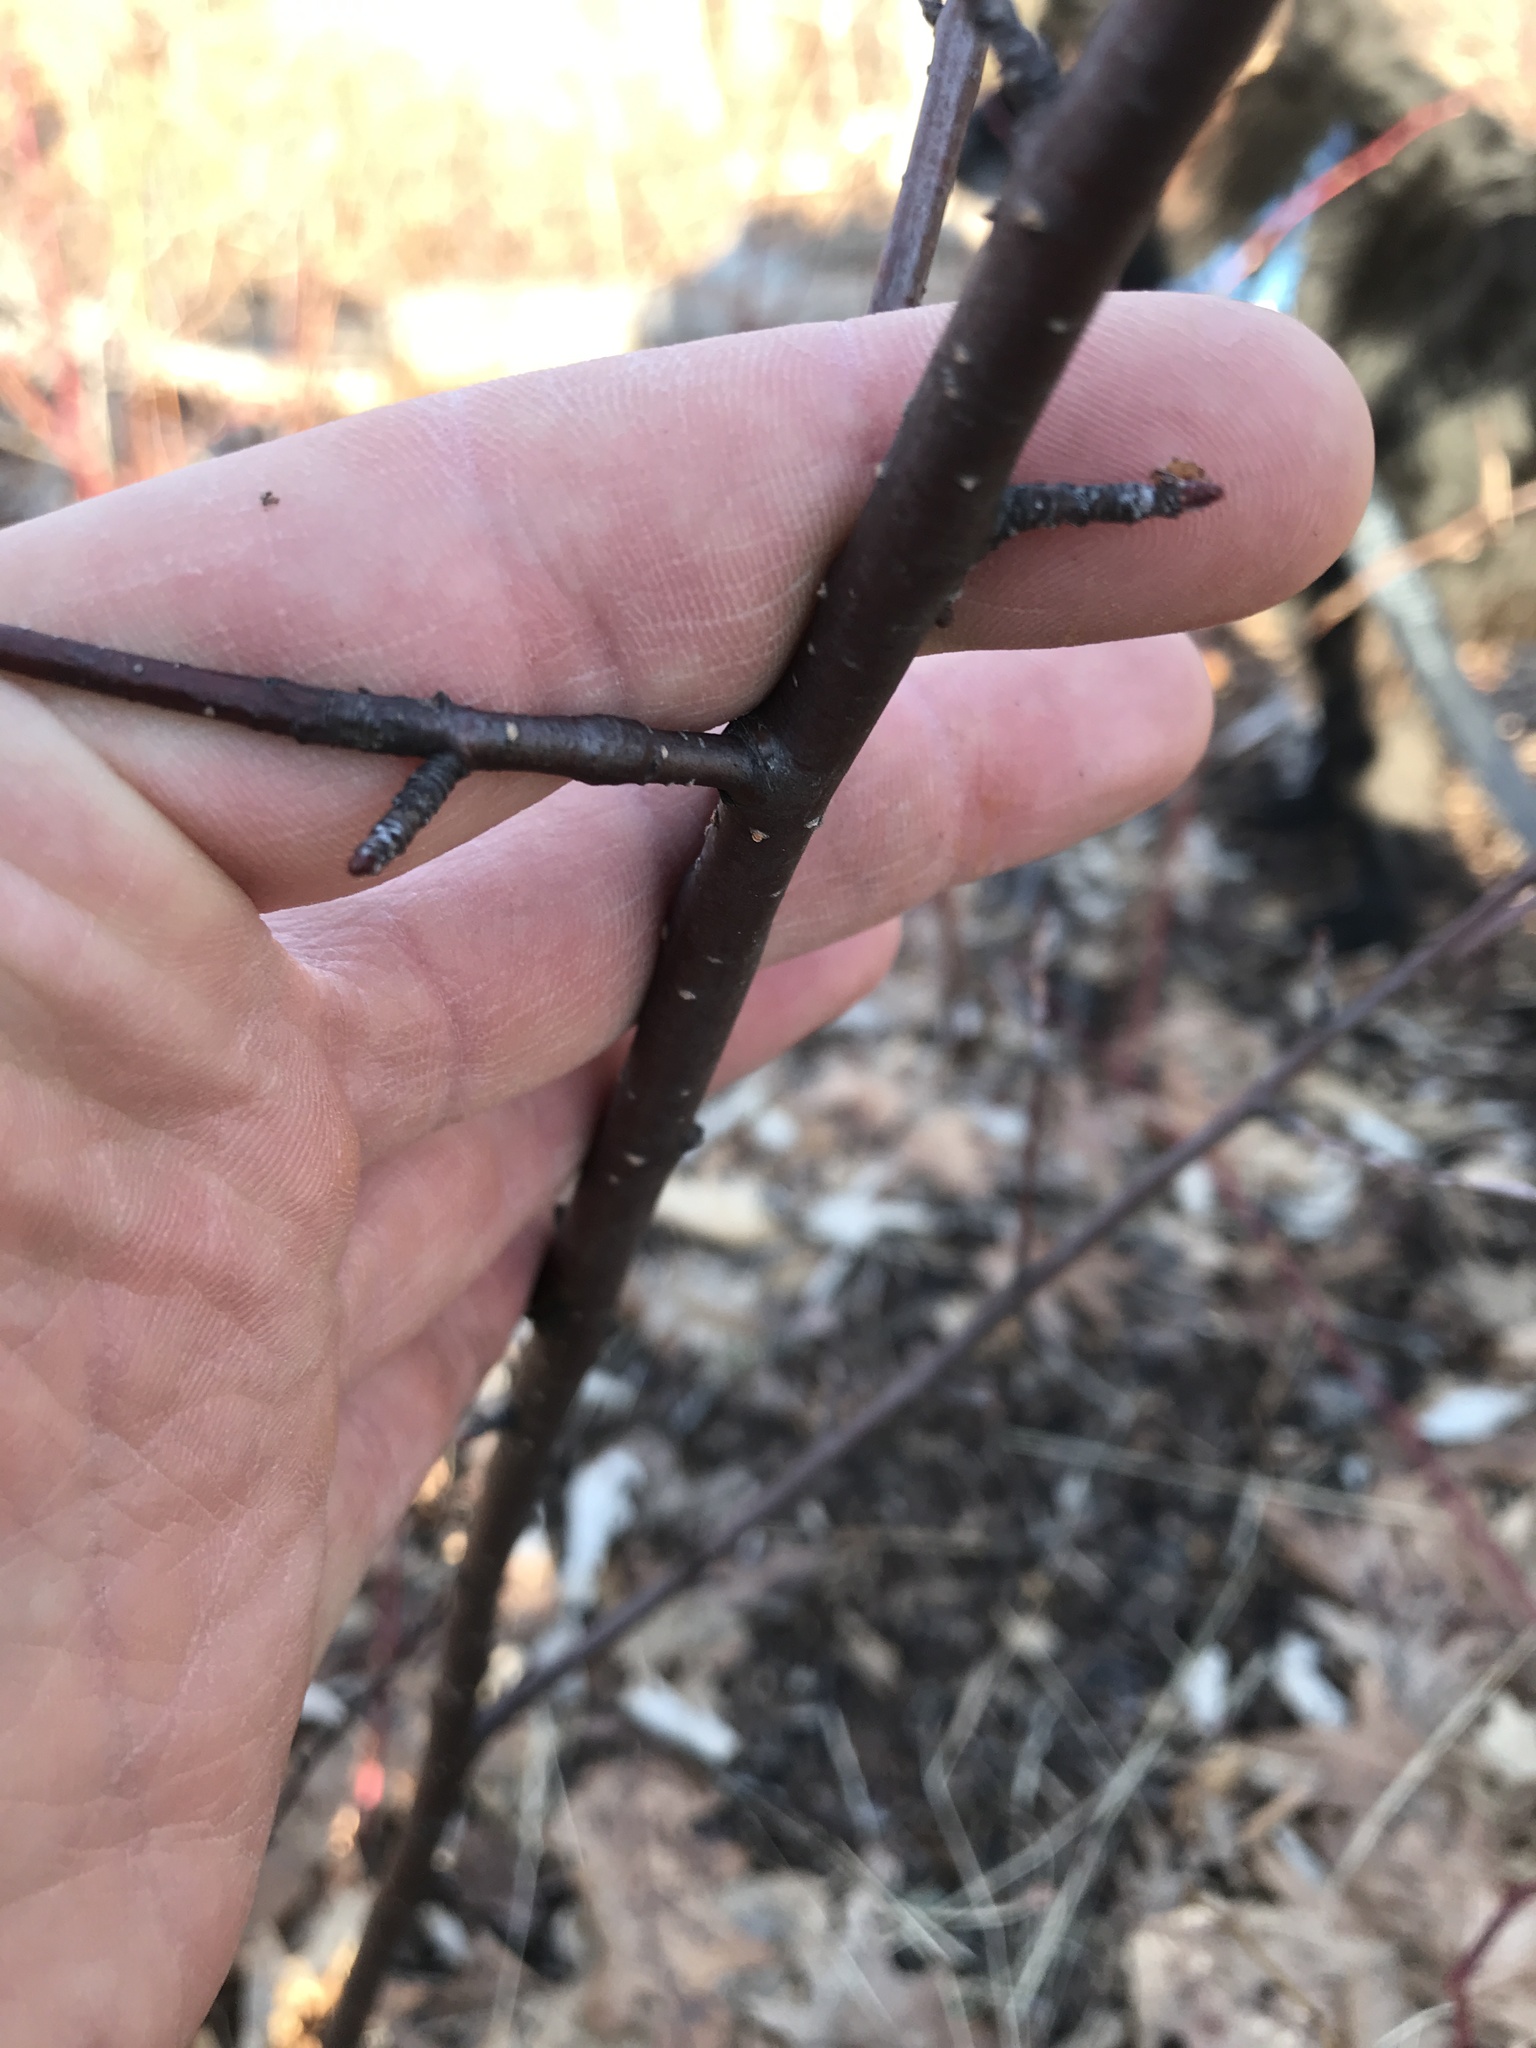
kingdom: Plantae
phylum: Tracheophyta
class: Magnoliopsida
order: Rosales
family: Rosaceae
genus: Prunus
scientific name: Prunus pensylvanica
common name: Pin cherry
